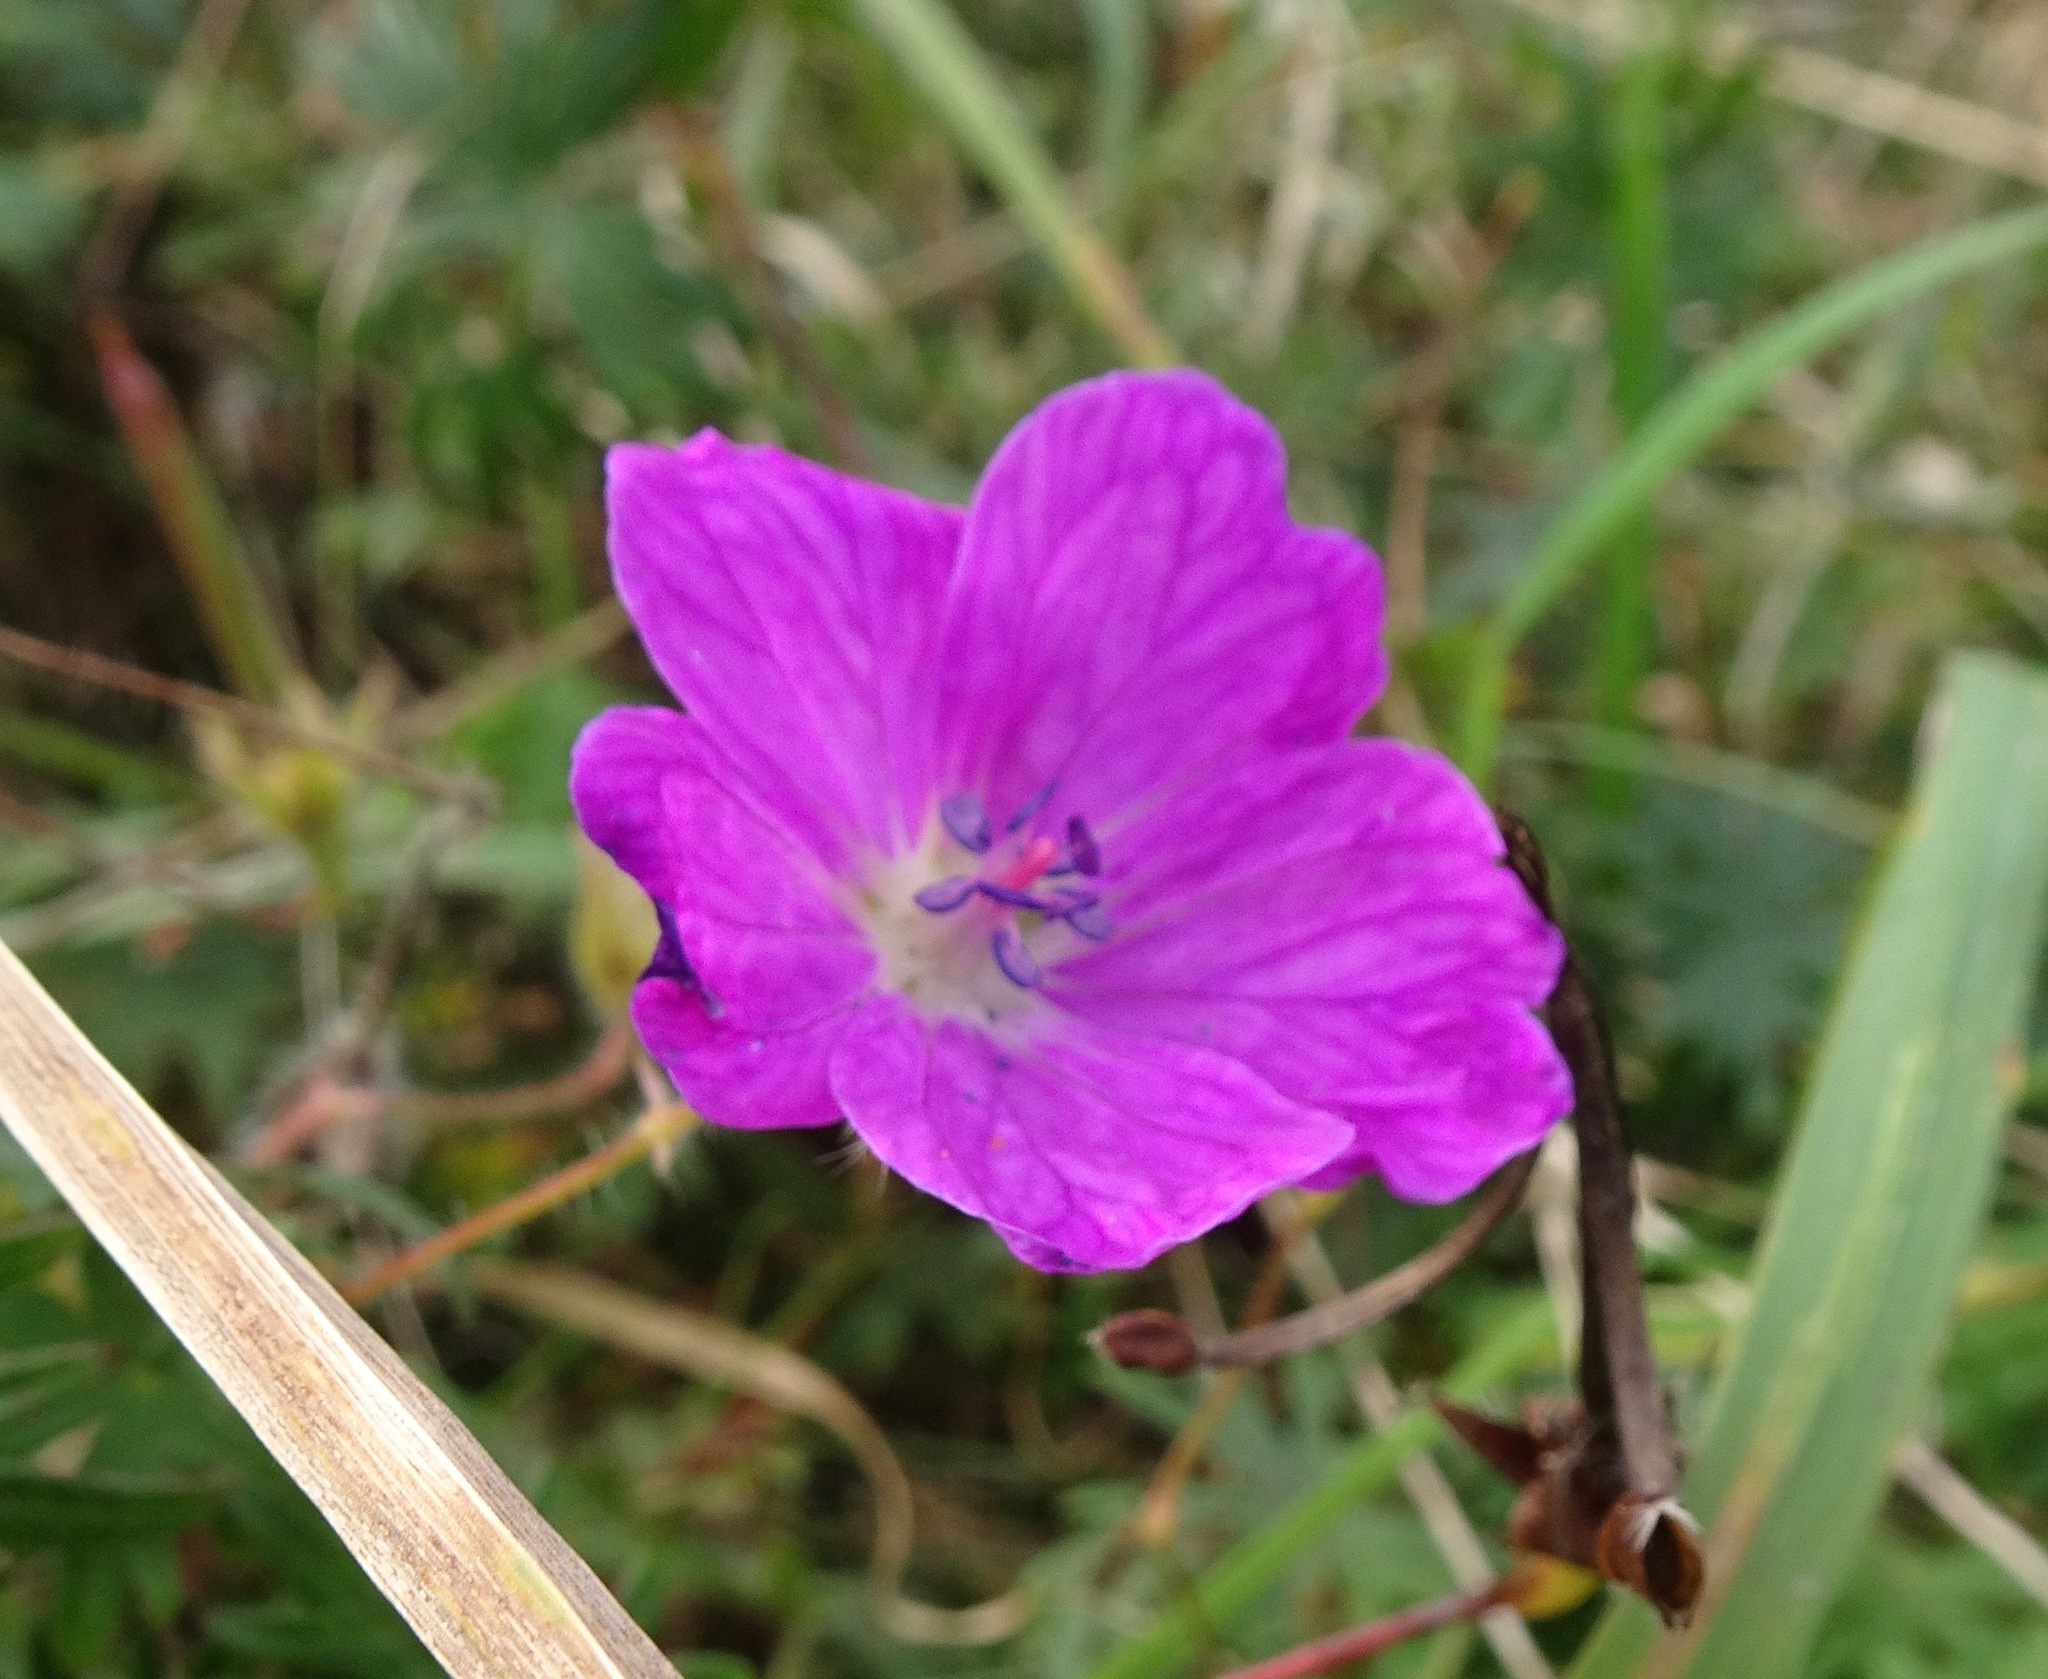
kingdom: Plantae
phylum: Tracheophyta
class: Magnoliopsida
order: Geraniales
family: Geraniaceae
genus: Geranium
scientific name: Geranium sanguineum
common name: Bloody crane's-bill
